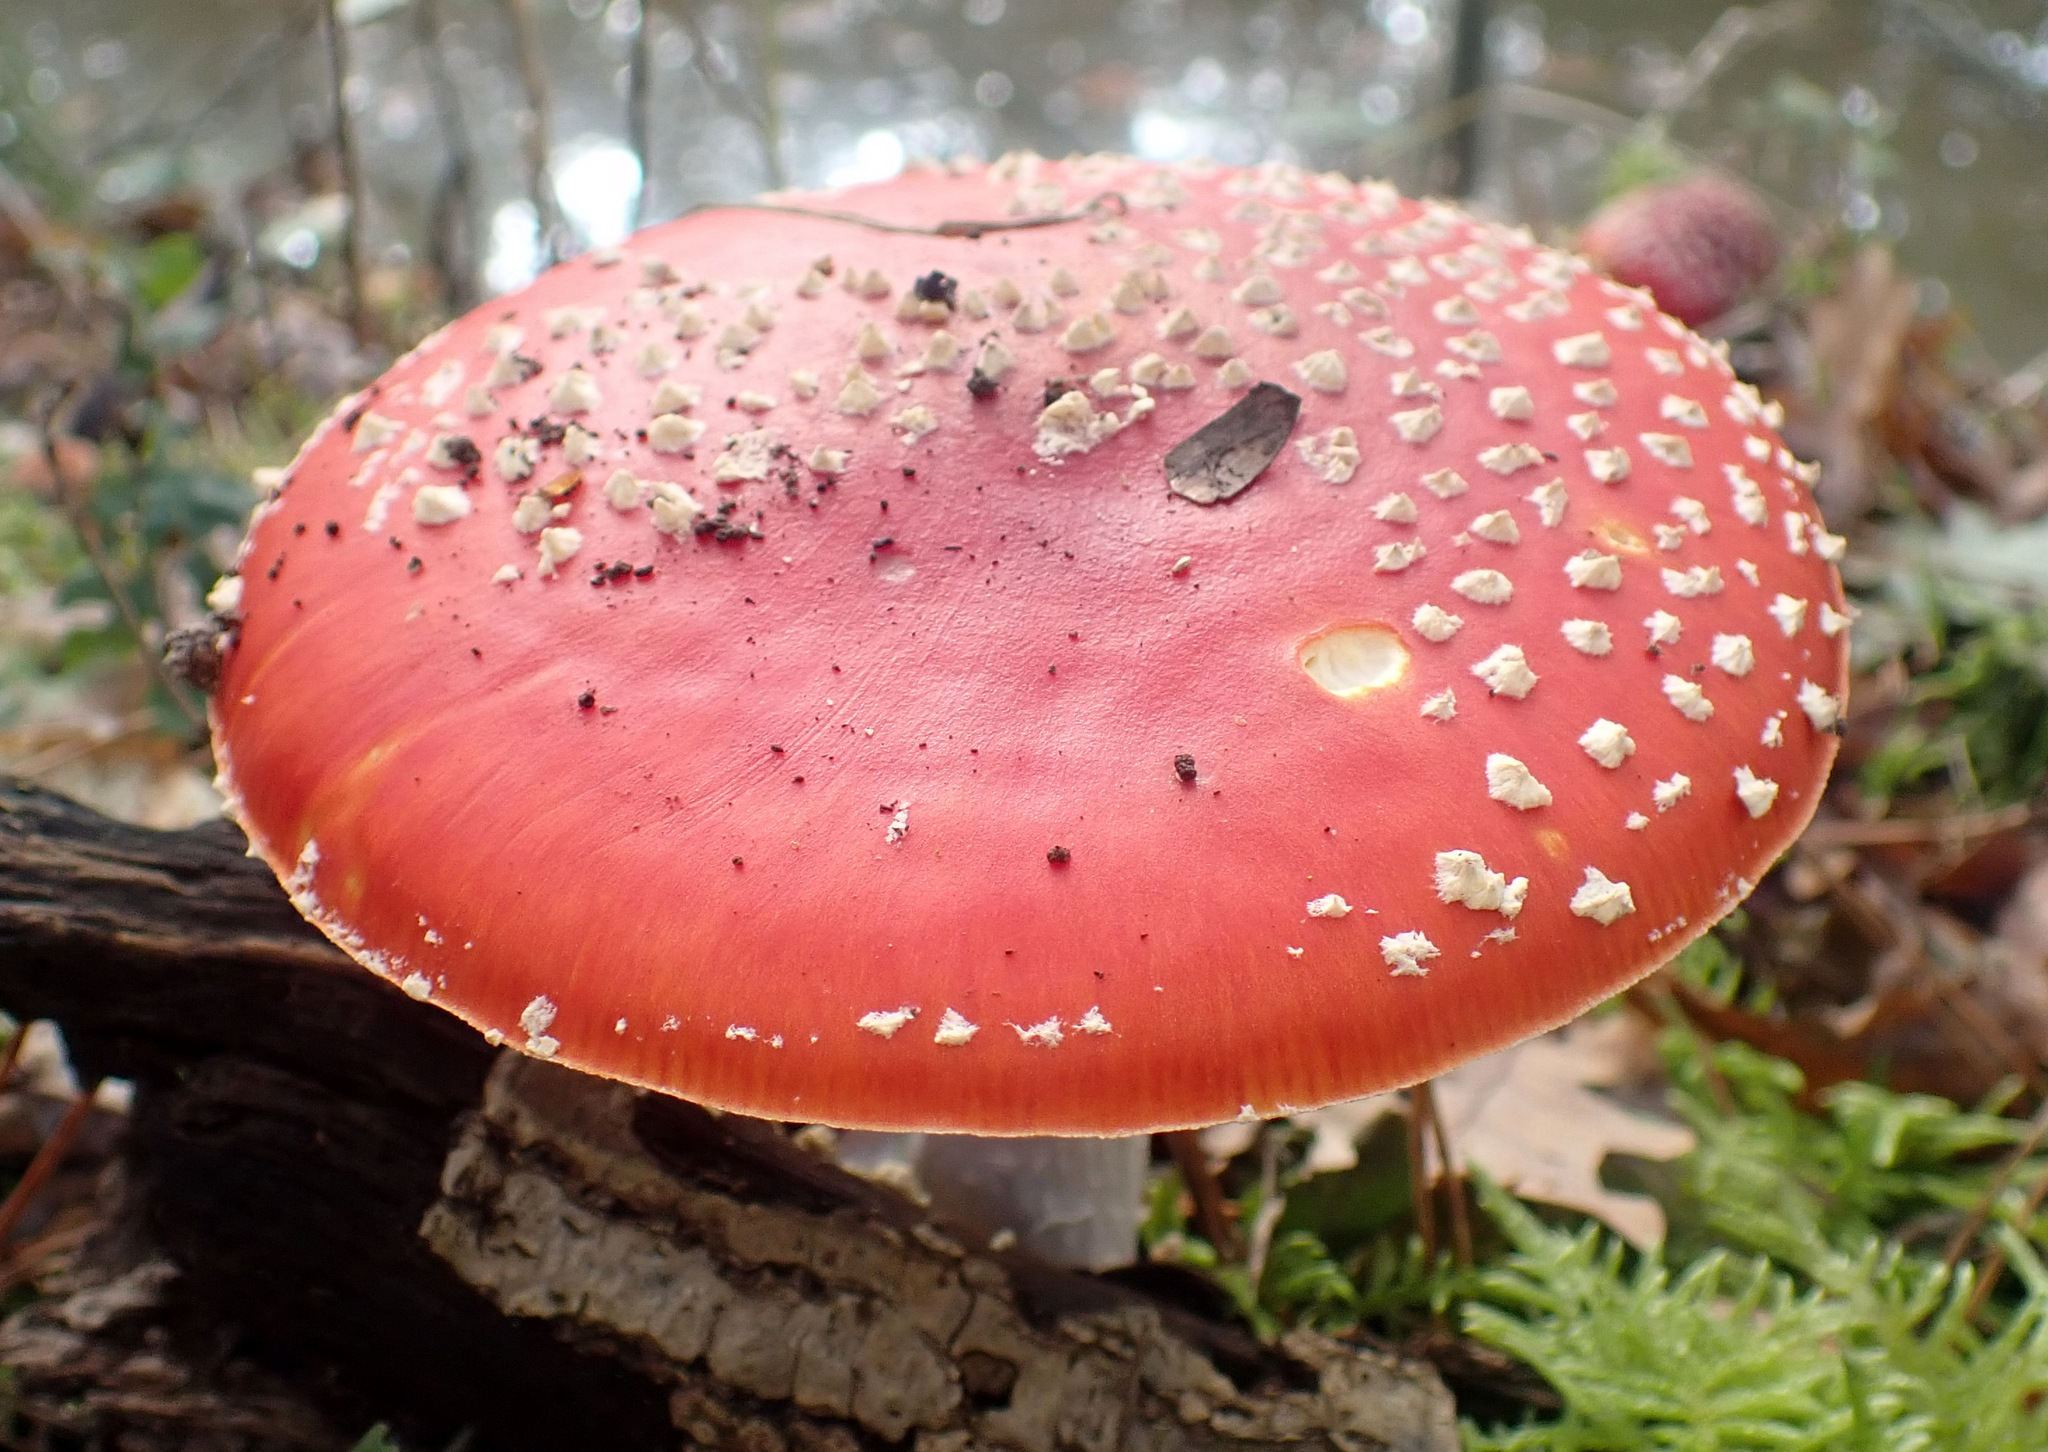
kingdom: Fungi
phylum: Basidiomycota
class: Agaricomycetes
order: Agaricales
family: Amanitaceae
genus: Amanita
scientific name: Amanita muscaria
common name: Fly agaric
